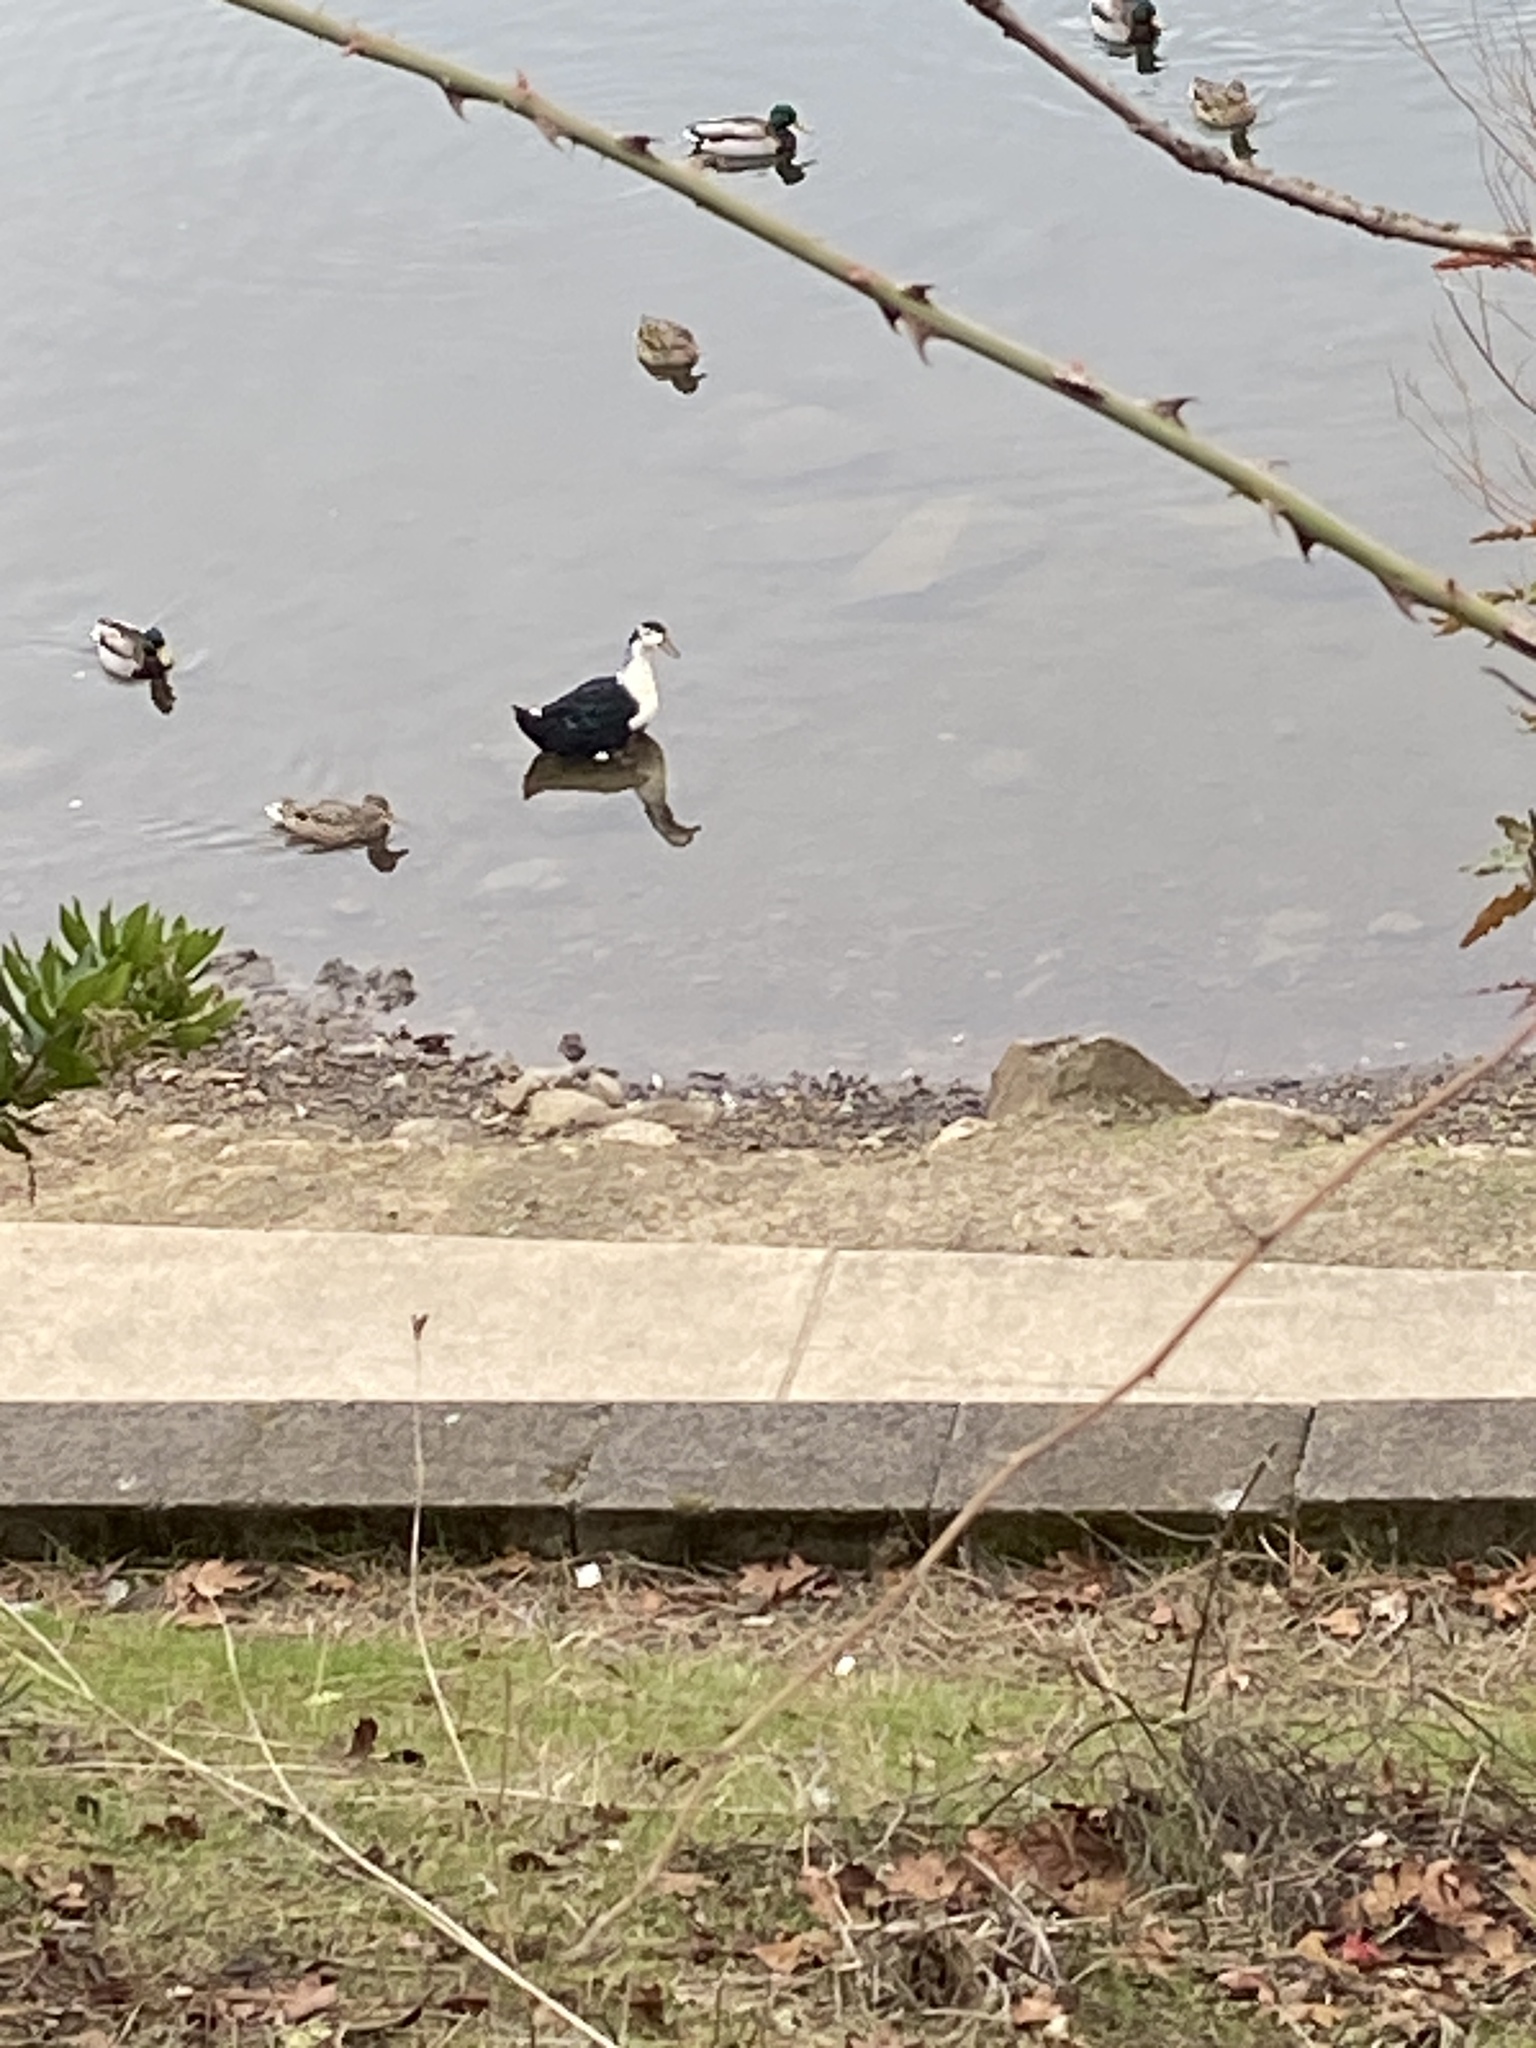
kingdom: Animalia
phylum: Chordata
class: Aves
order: Anseriformes
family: Anatidae
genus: Anas
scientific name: Anas platyrhynchos
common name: Mallard
